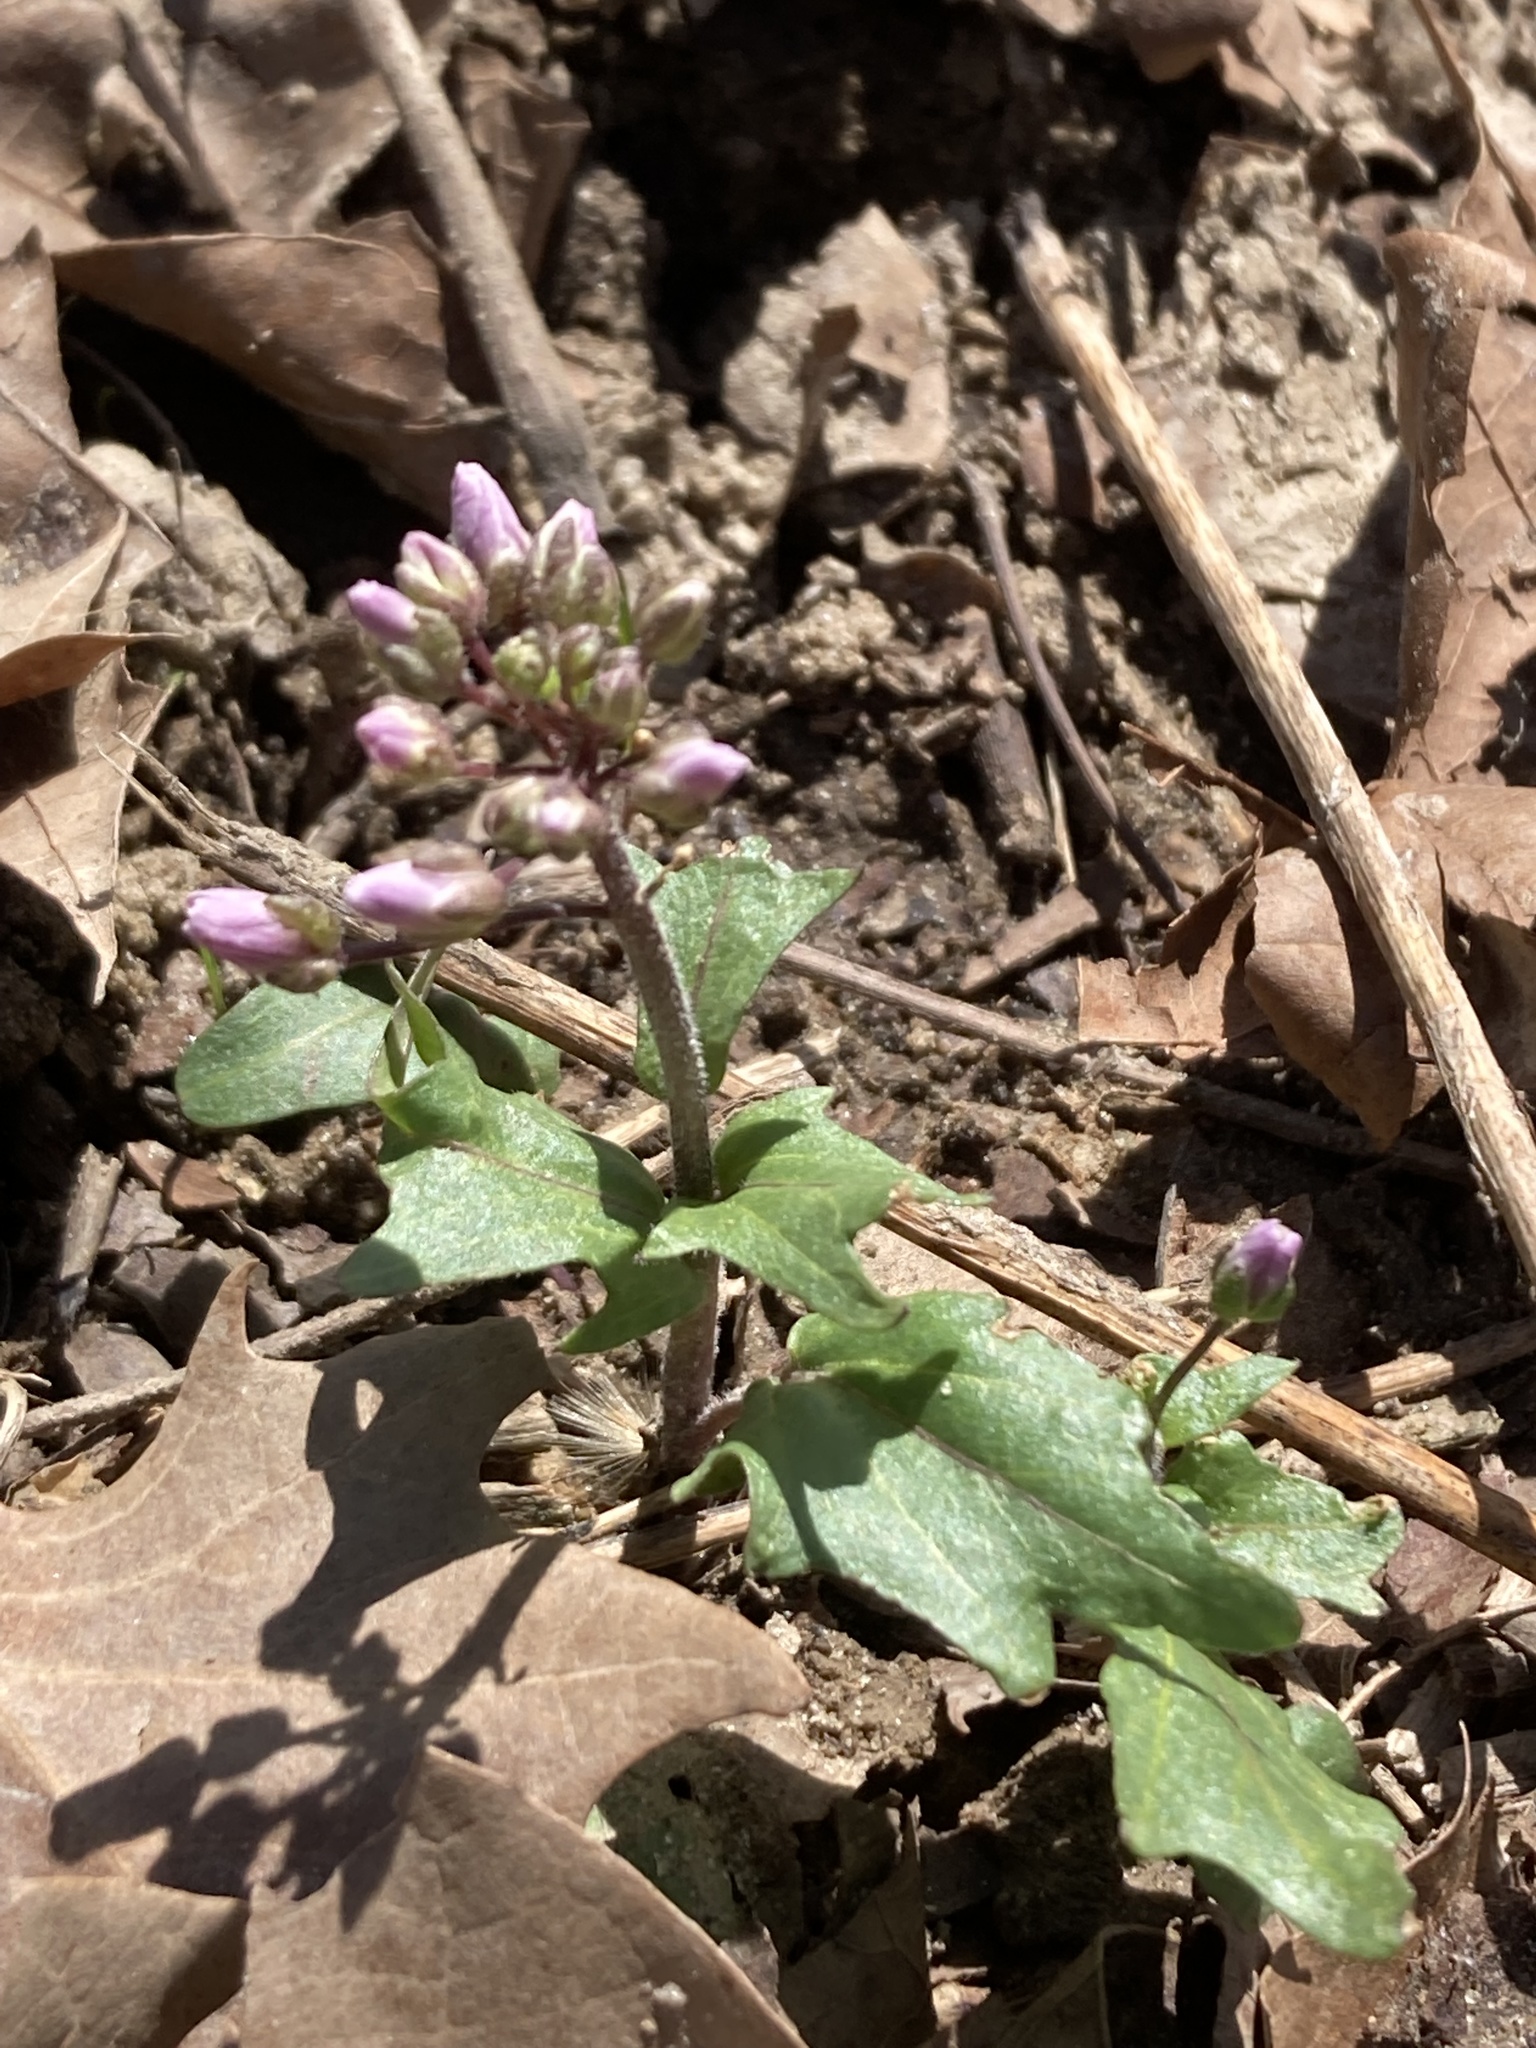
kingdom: Plantae
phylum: Tracheophyta
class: Magnoliopsida
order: Brassicales
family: Brassicaceae
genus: Cardamine
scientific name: Cardamine douglassii
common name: Purple cress
